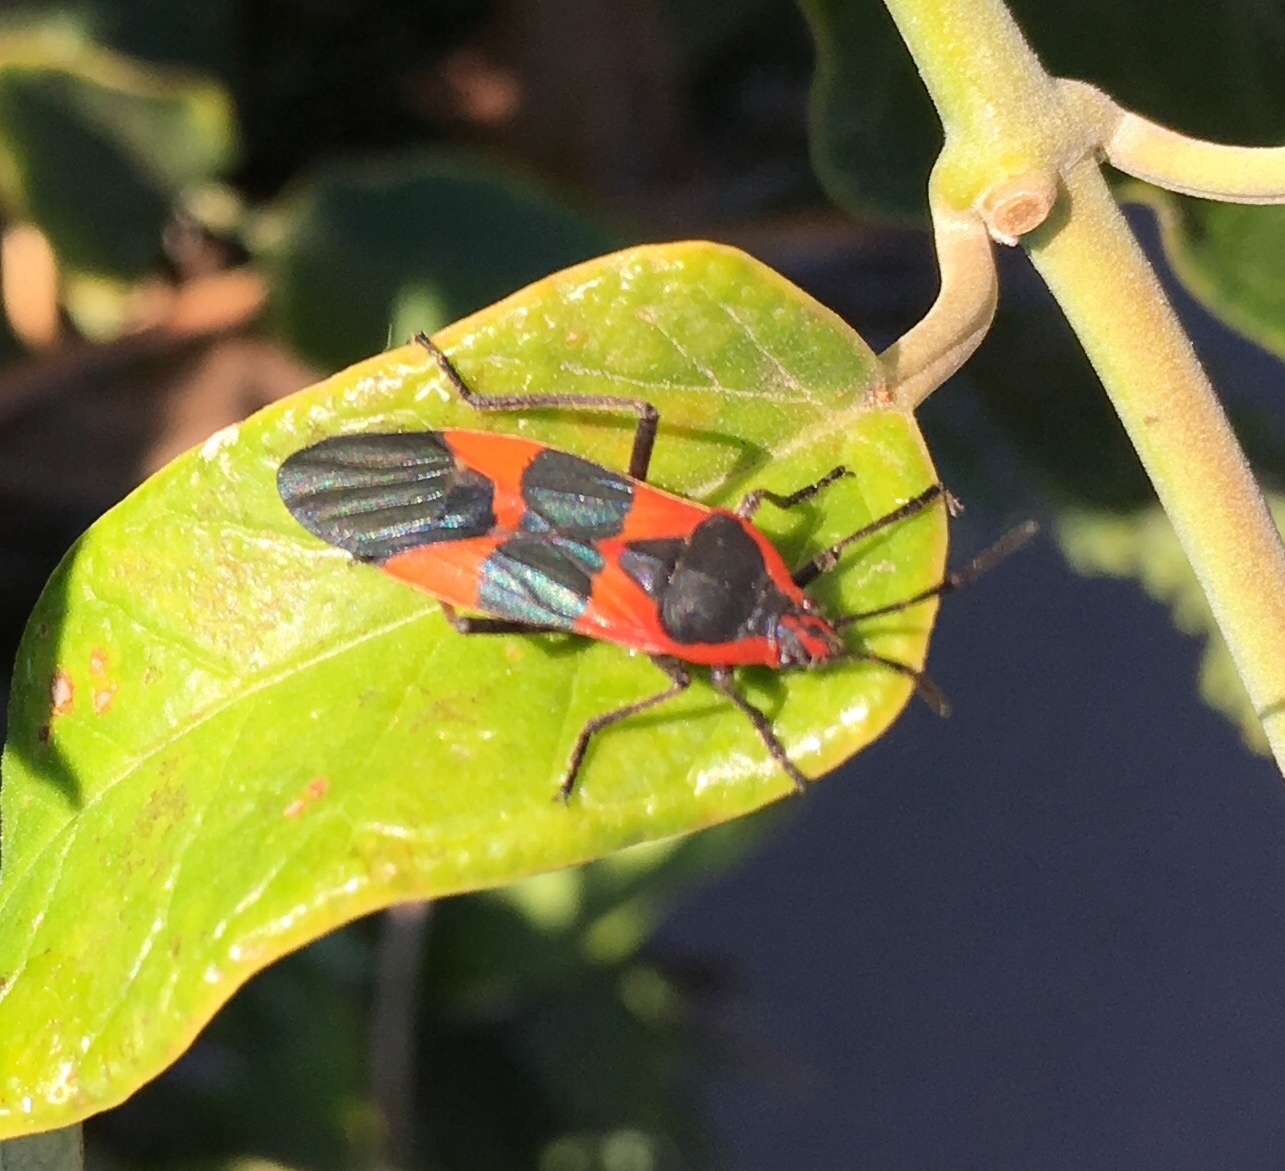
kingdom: Animalia
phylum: Arthropoda
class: Insecta
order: Hemiptera
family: Lygaeidae
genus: Oncopeltus
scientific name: Oncopeltus fasciatus
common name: Large milkweed bug
